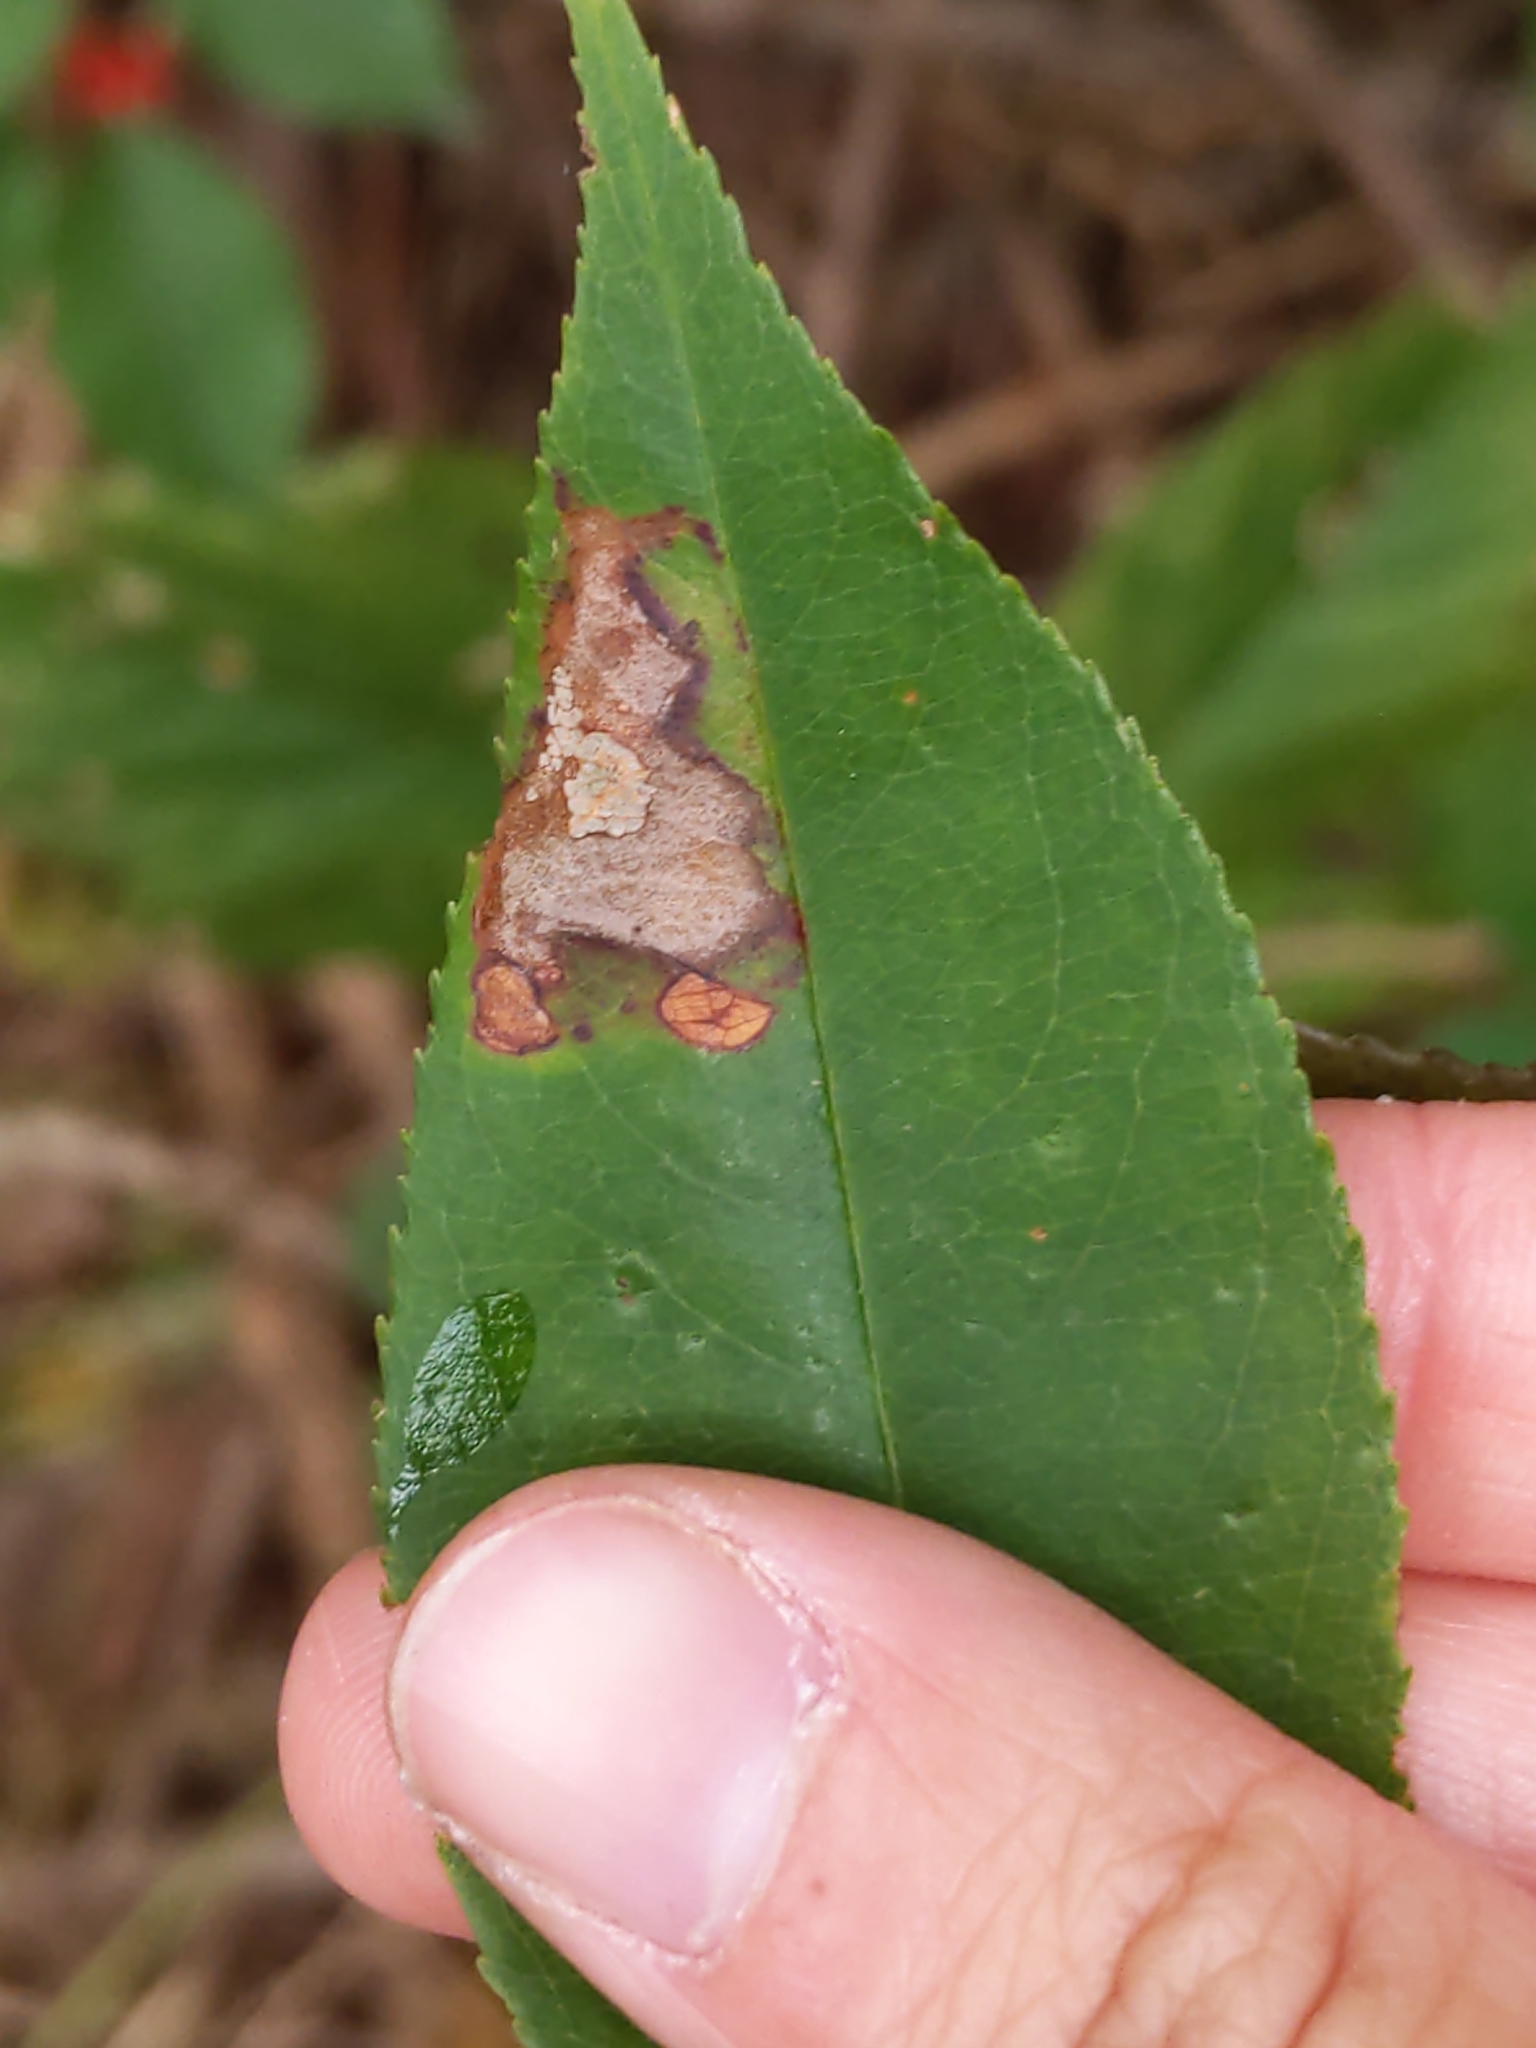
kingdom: Animalia
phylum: Arthropoda
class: Insecta
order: Lepidoptera
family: Gracillariidae
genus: Parornix
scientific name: Parornix
